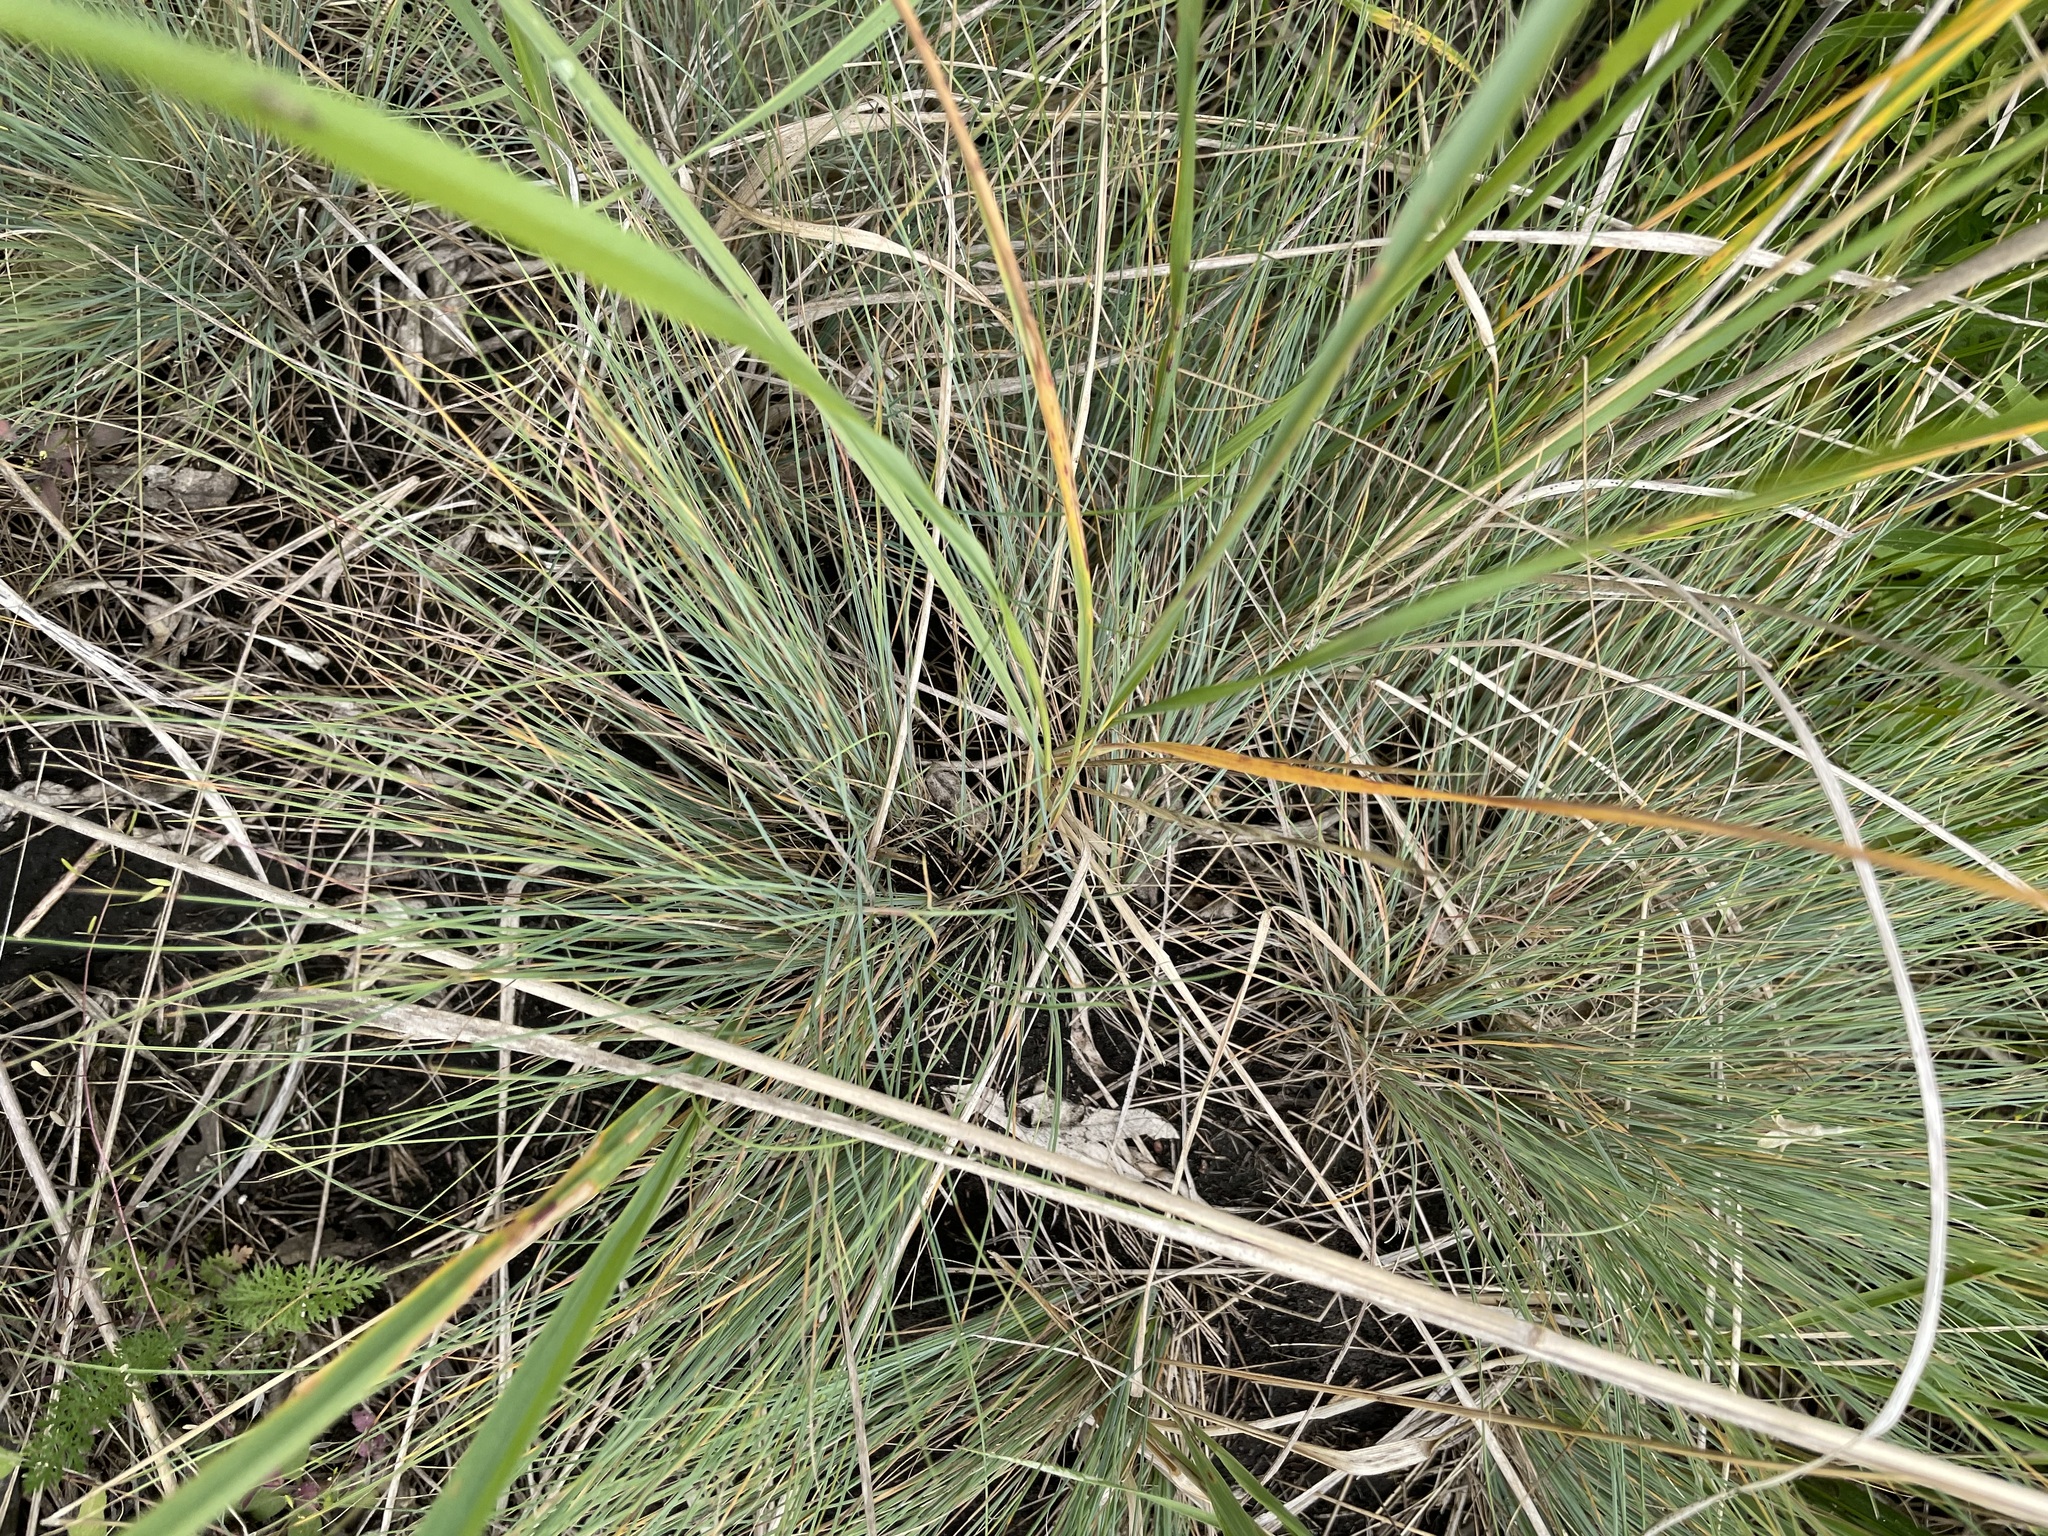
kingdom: Plantae
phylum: Tracheophyta
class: Liliopsida
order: Poales
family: Poaceae
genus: Festuca
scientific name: Festuca valesiaca
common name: Volga fescue
